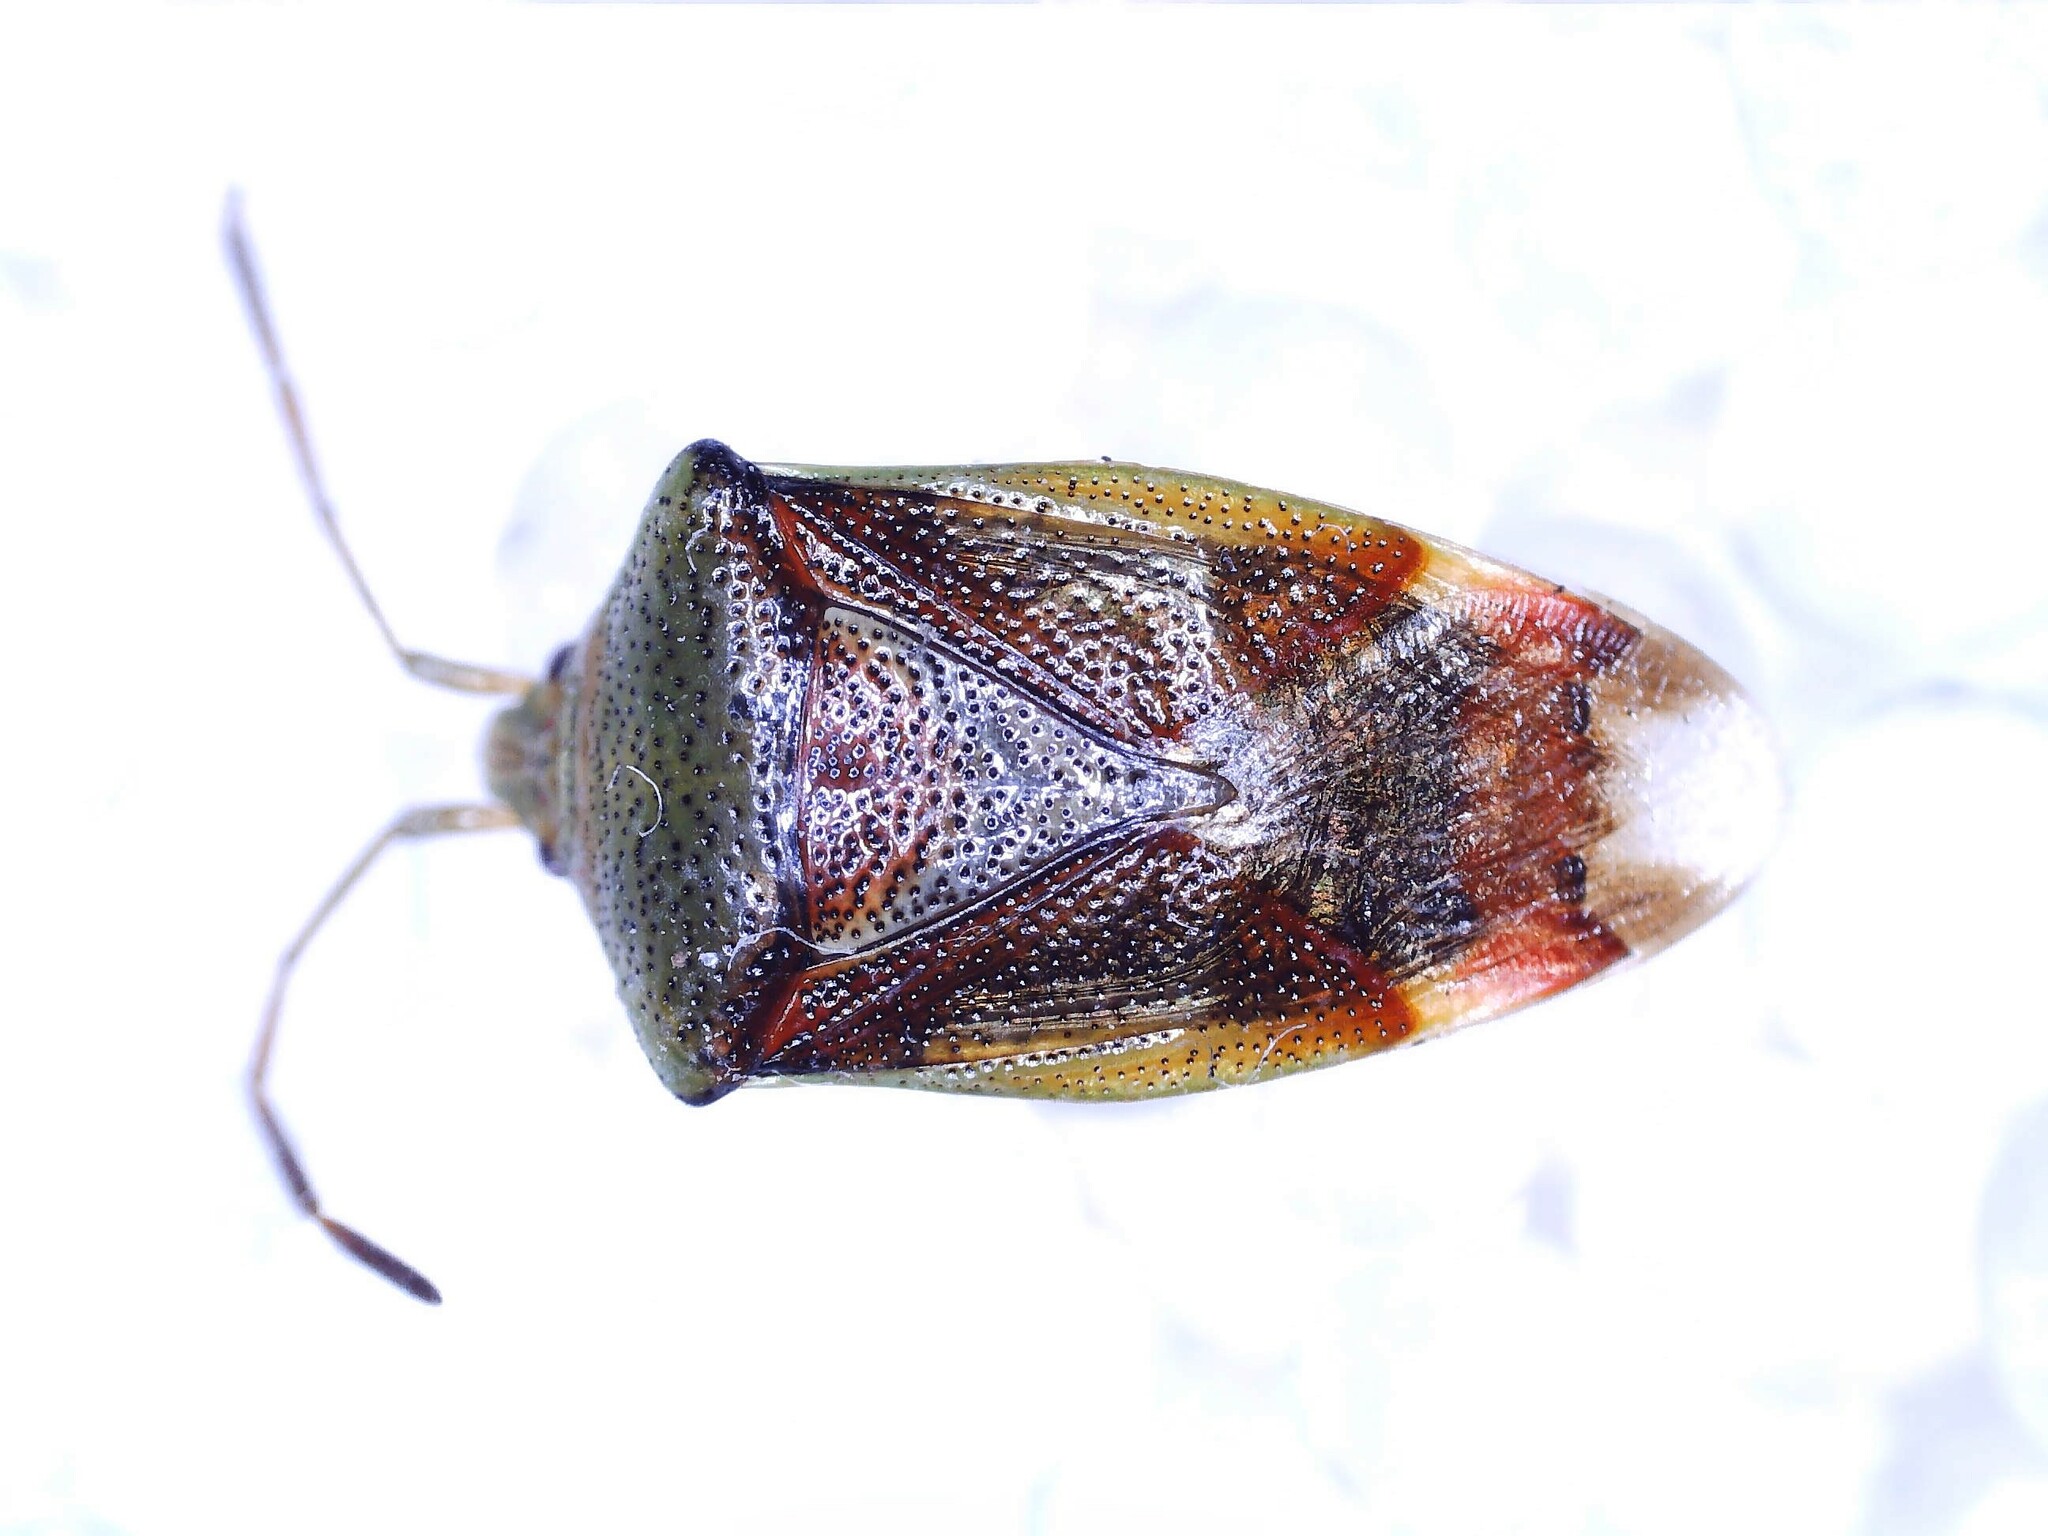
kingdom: Animalia
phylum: Arthropoda
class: Insecta
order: Hemiptera
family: Acanthosomatidae
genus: Elasmostethus
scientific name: Elasmostethus interstinctus
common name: Birch shieldbug
